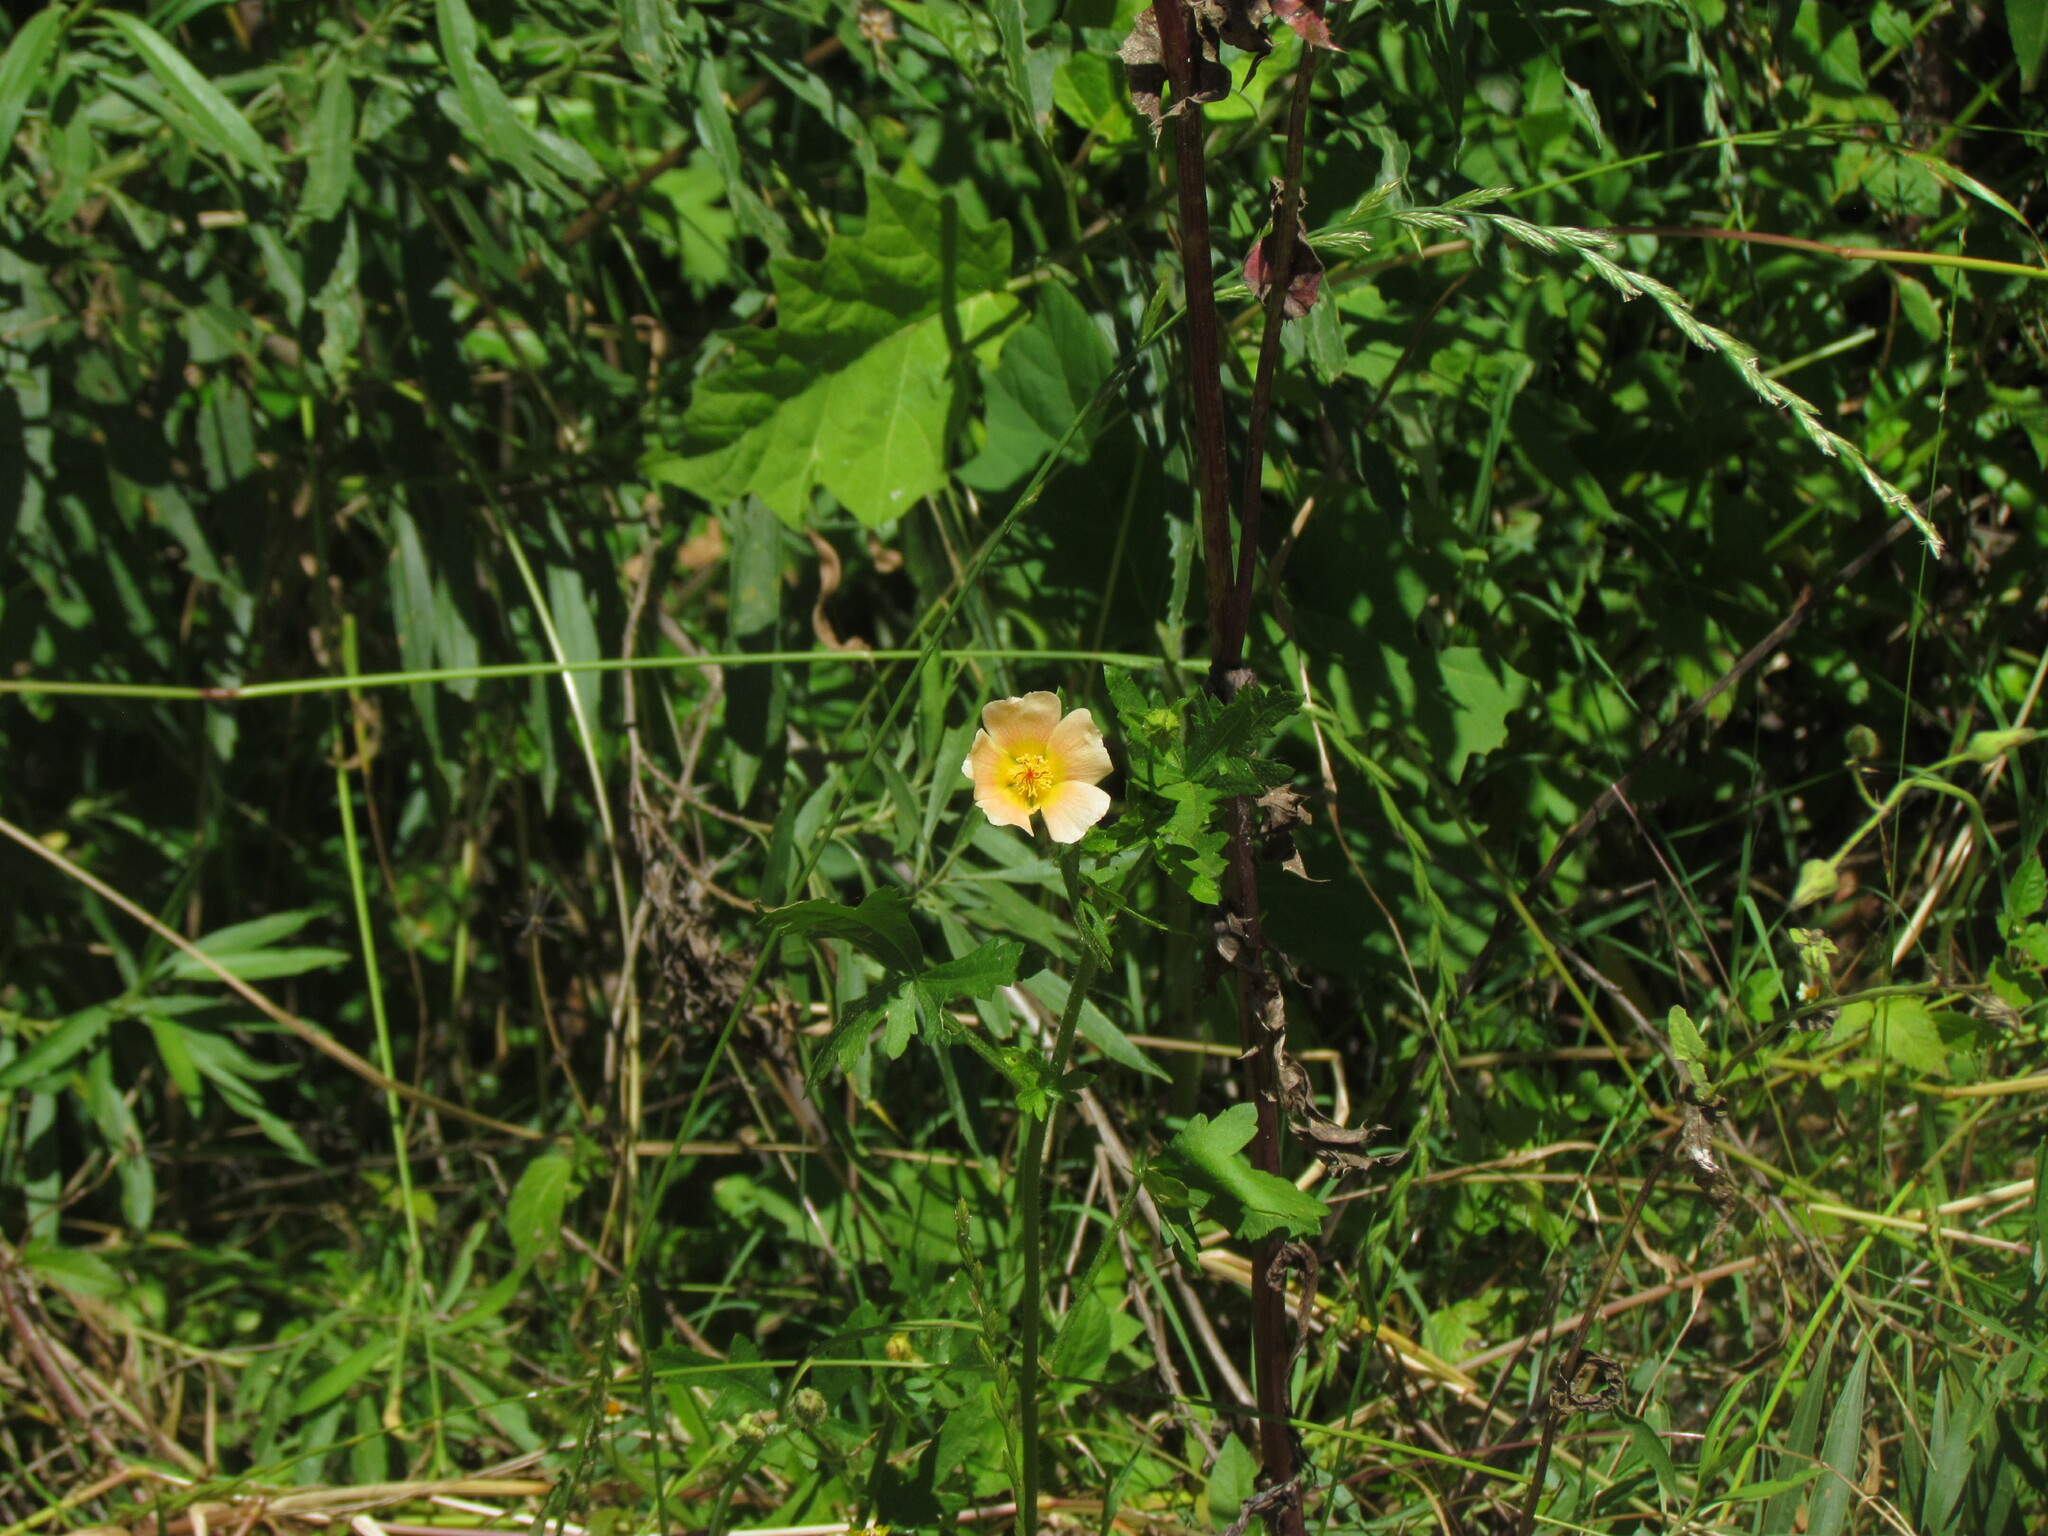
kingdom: Plantae
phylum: Tracheophyta
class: Magnoliopsida
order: Malvales
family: Malvaceae
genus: Modiolastrum
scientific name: Modiolastrum malvifolium
